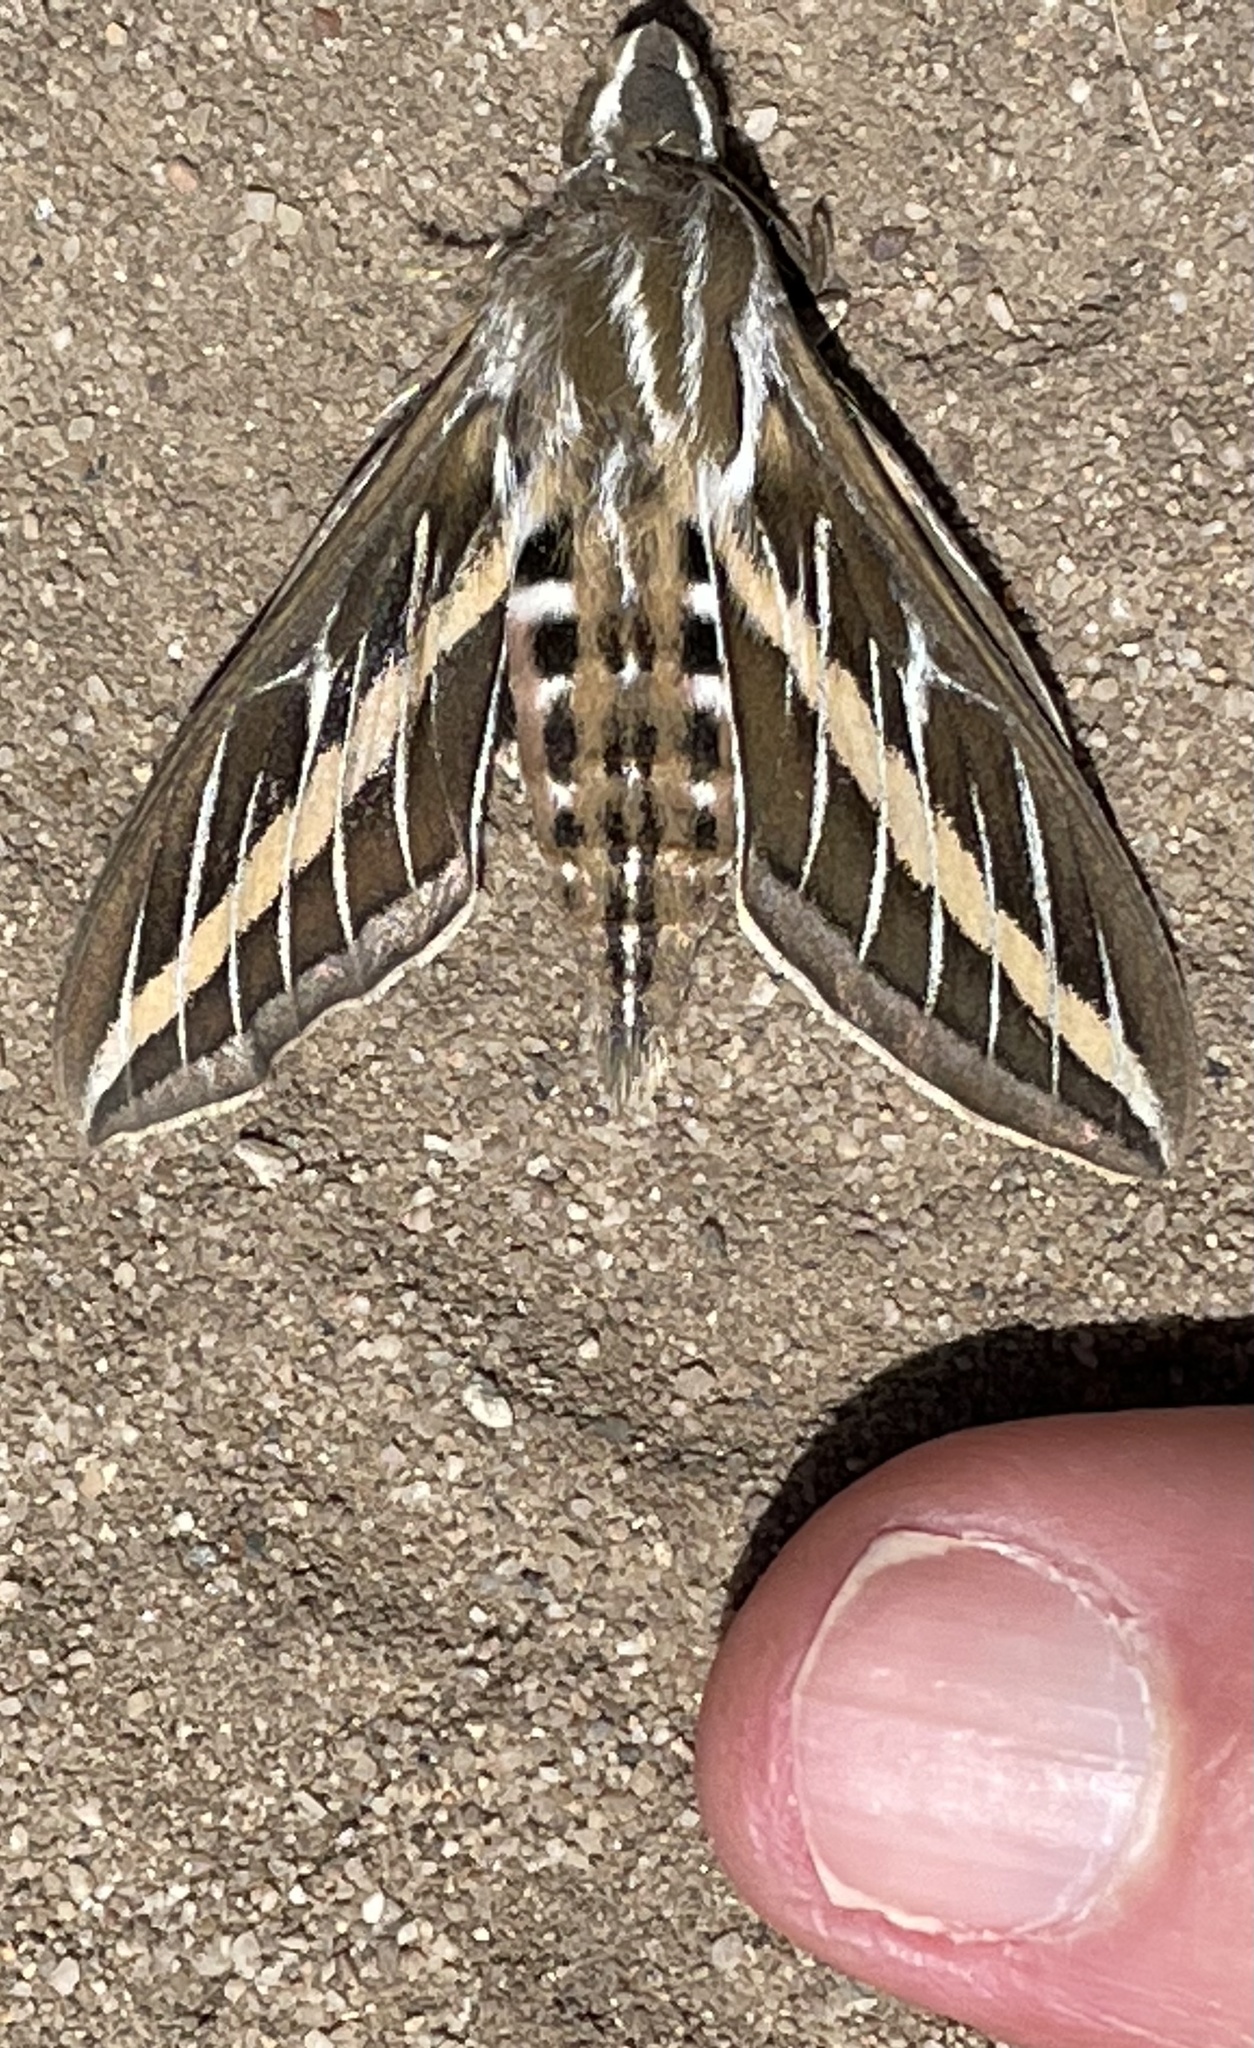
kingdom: Animalia
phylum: Arthropoda
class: Insecta
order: Lepidoptera
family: Sphingidae
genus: Hyles
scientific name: Hyles lineata
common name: White-lined sphinx
